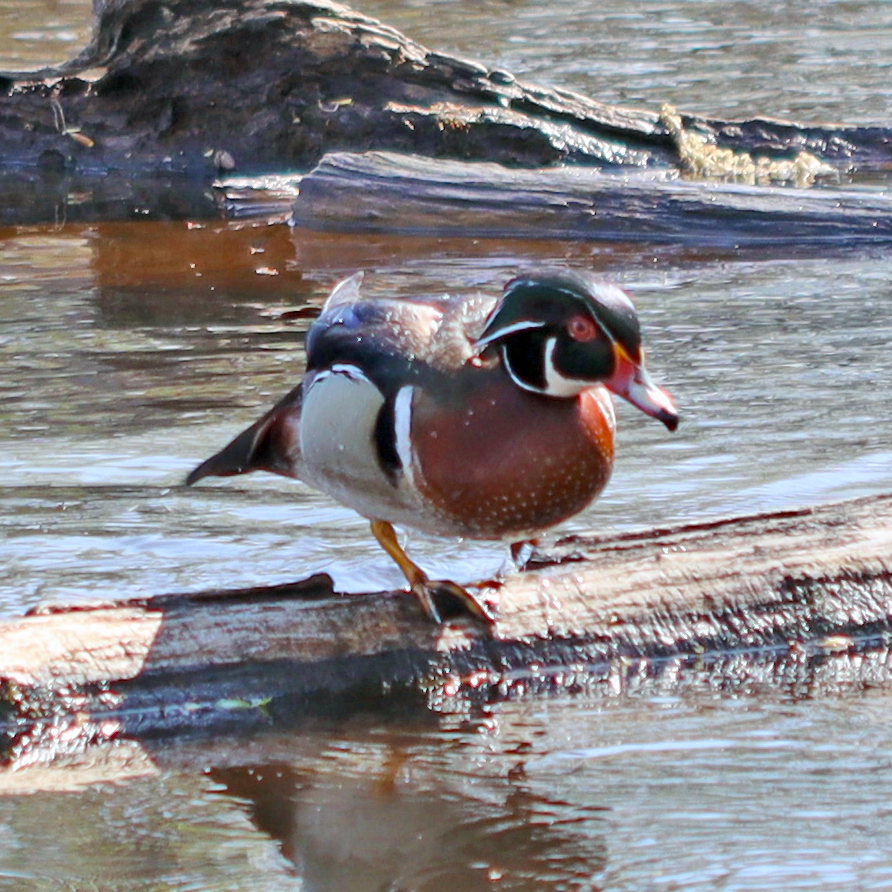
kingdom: Animalia
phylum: Chordata
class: Aves
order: Anseriformes
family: Anatidae
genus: Aix
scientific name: Aix sponsa
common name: Wood duck
